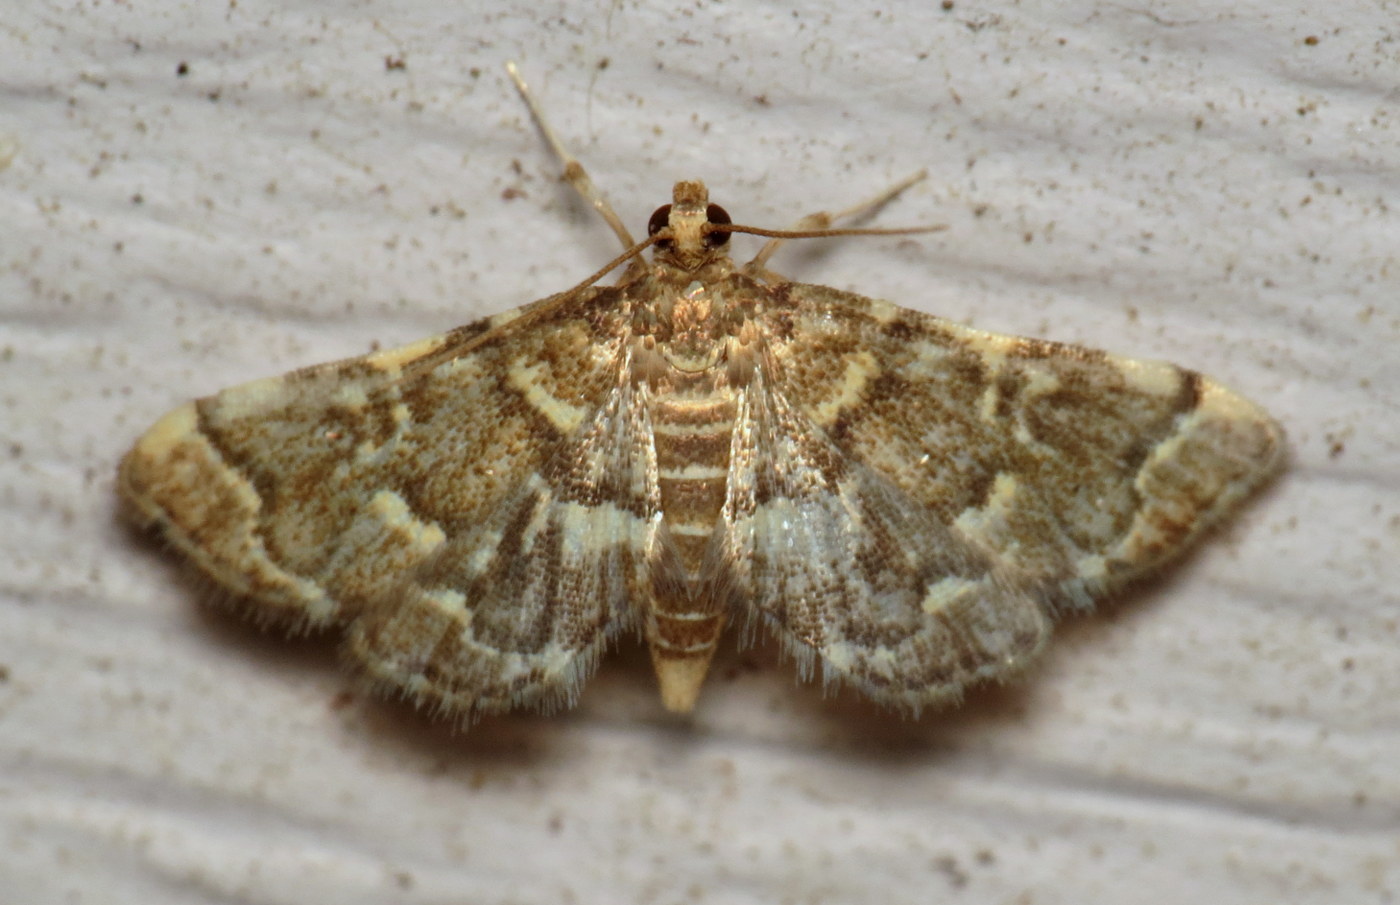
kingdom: Animalia
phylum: Arthropoda
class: Insecta
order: Lepidoptera
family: Crambidae
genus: Anageshna
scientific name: Anageshna primordialis
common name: Yellow-spotted webworm moth
